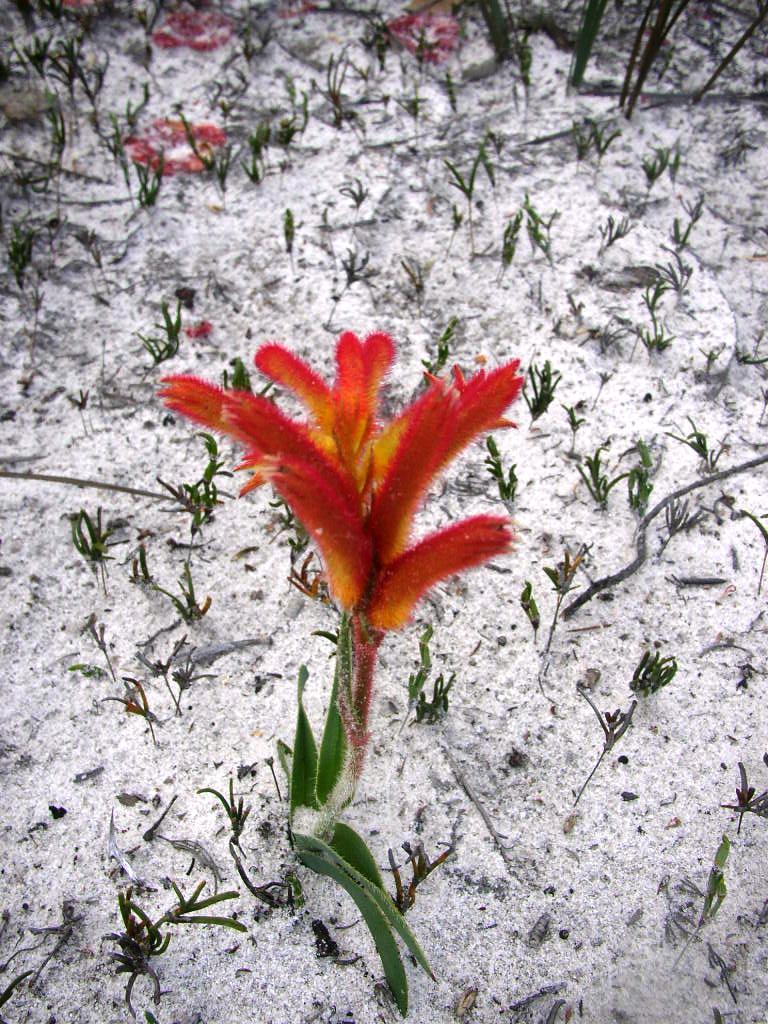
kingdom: Plantae
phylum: Tracheophyta
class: Liliopsida
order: Commelinales
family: Haemodoraceae
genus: Anigozanthos
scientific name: Anigozanthos humilis
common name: Cat's-paw
